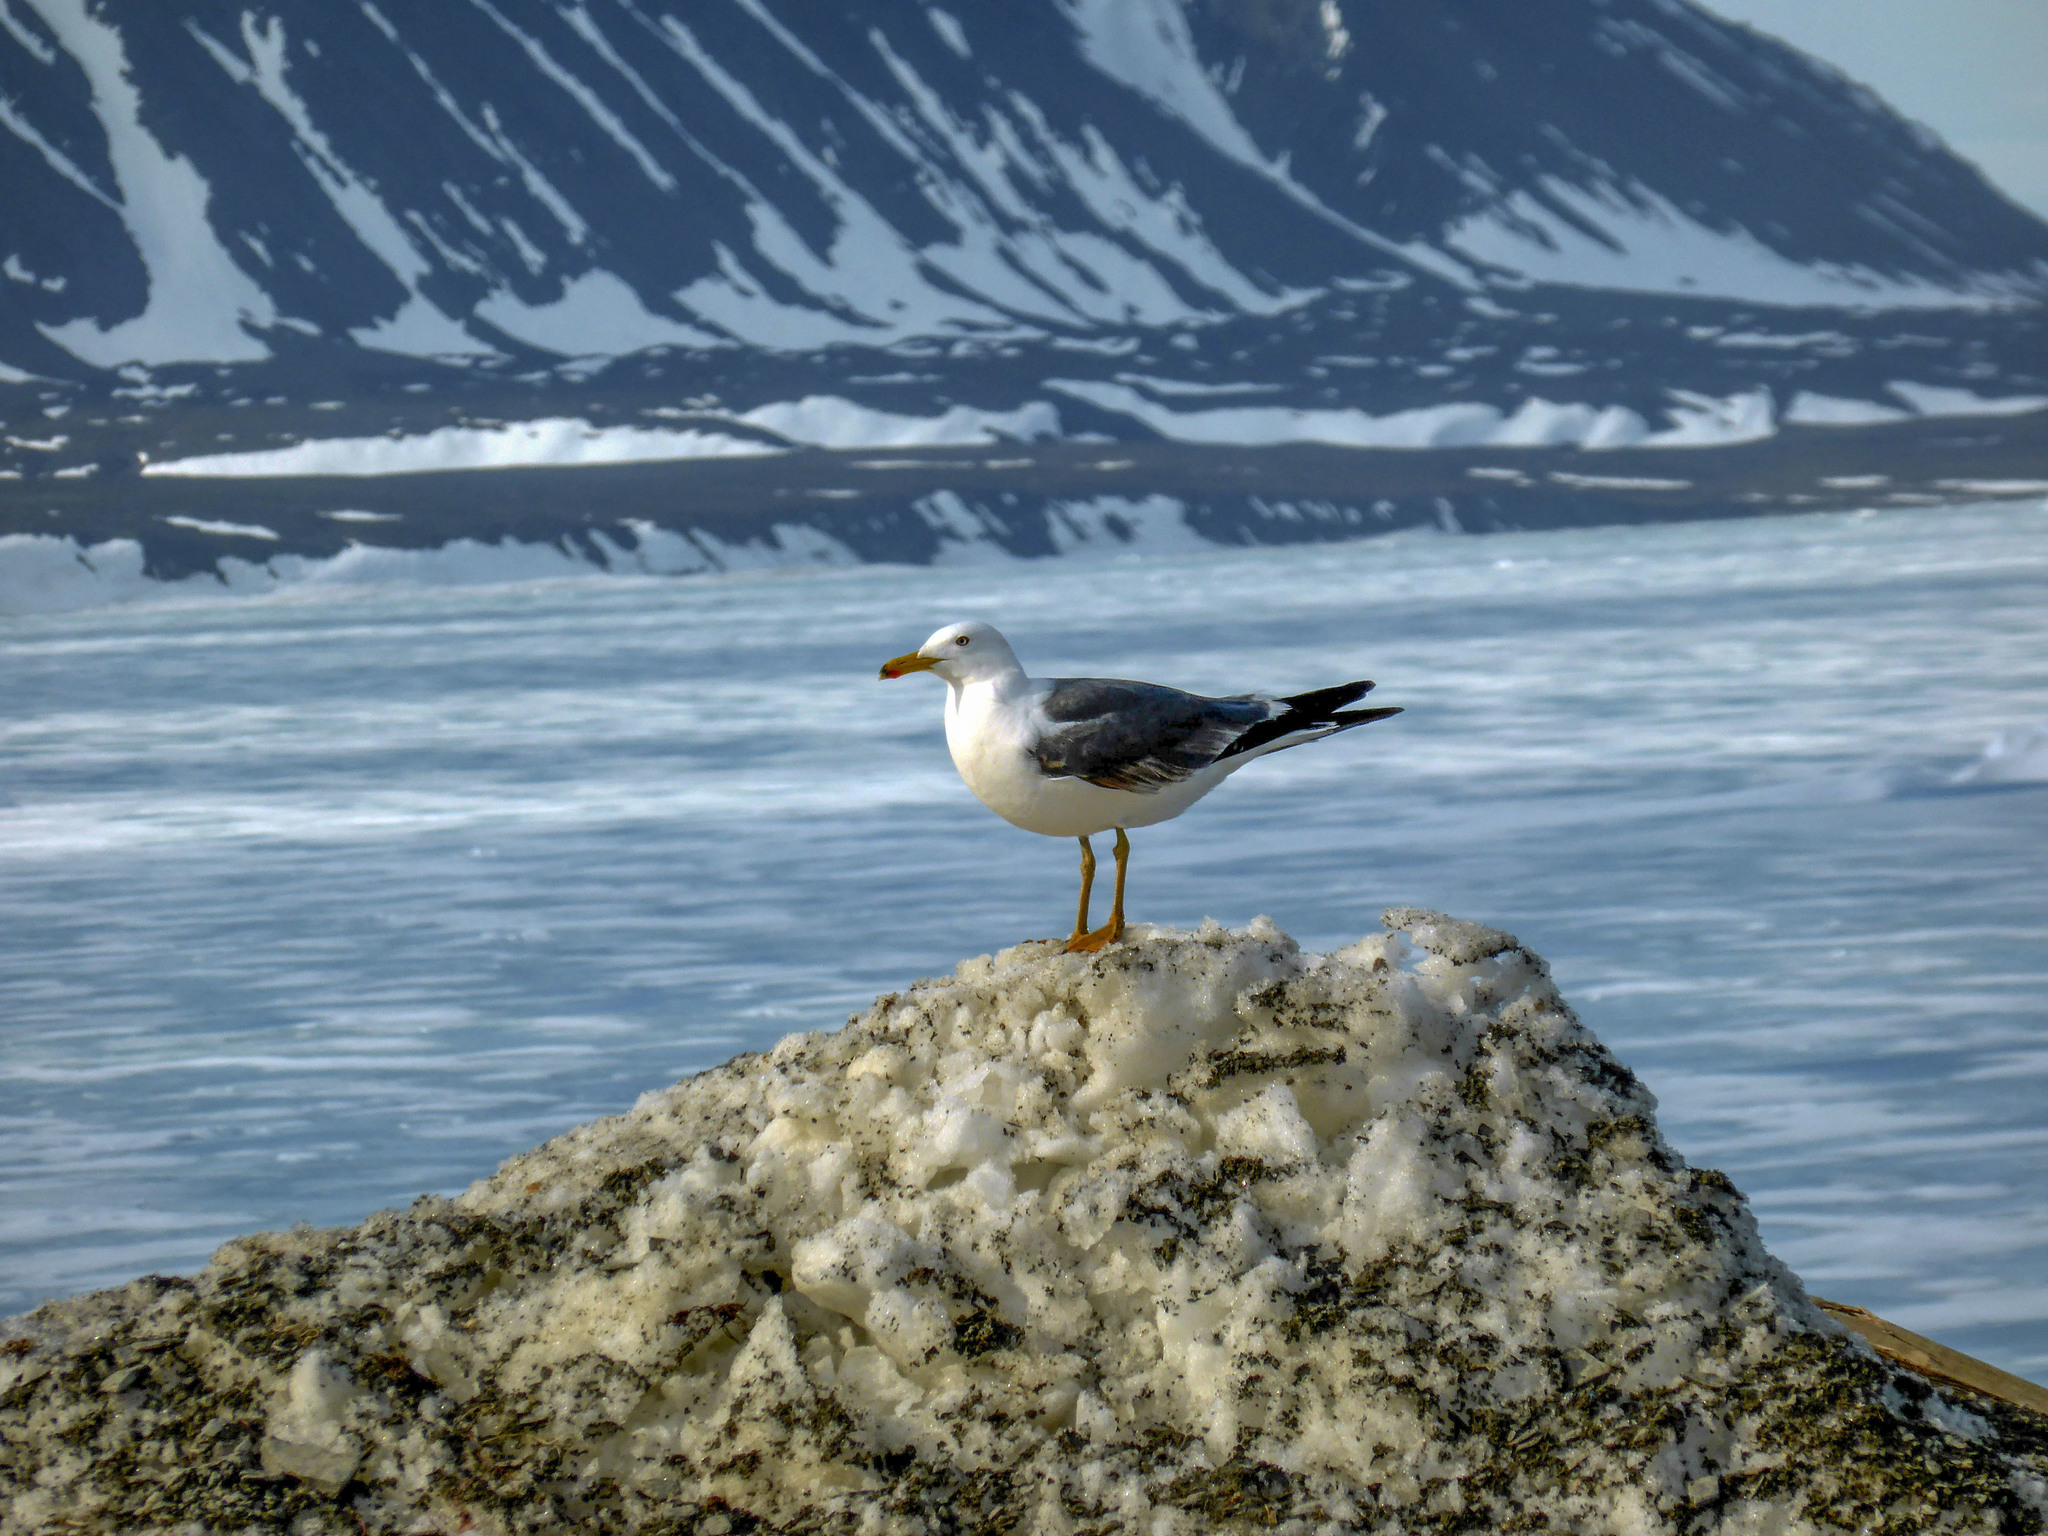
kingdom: Animalia
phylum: Chordata
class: Aves
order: Charadriiformes
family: Laridae
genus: Larus
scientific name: Larus fuscus
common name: Lesser black-backed gull
